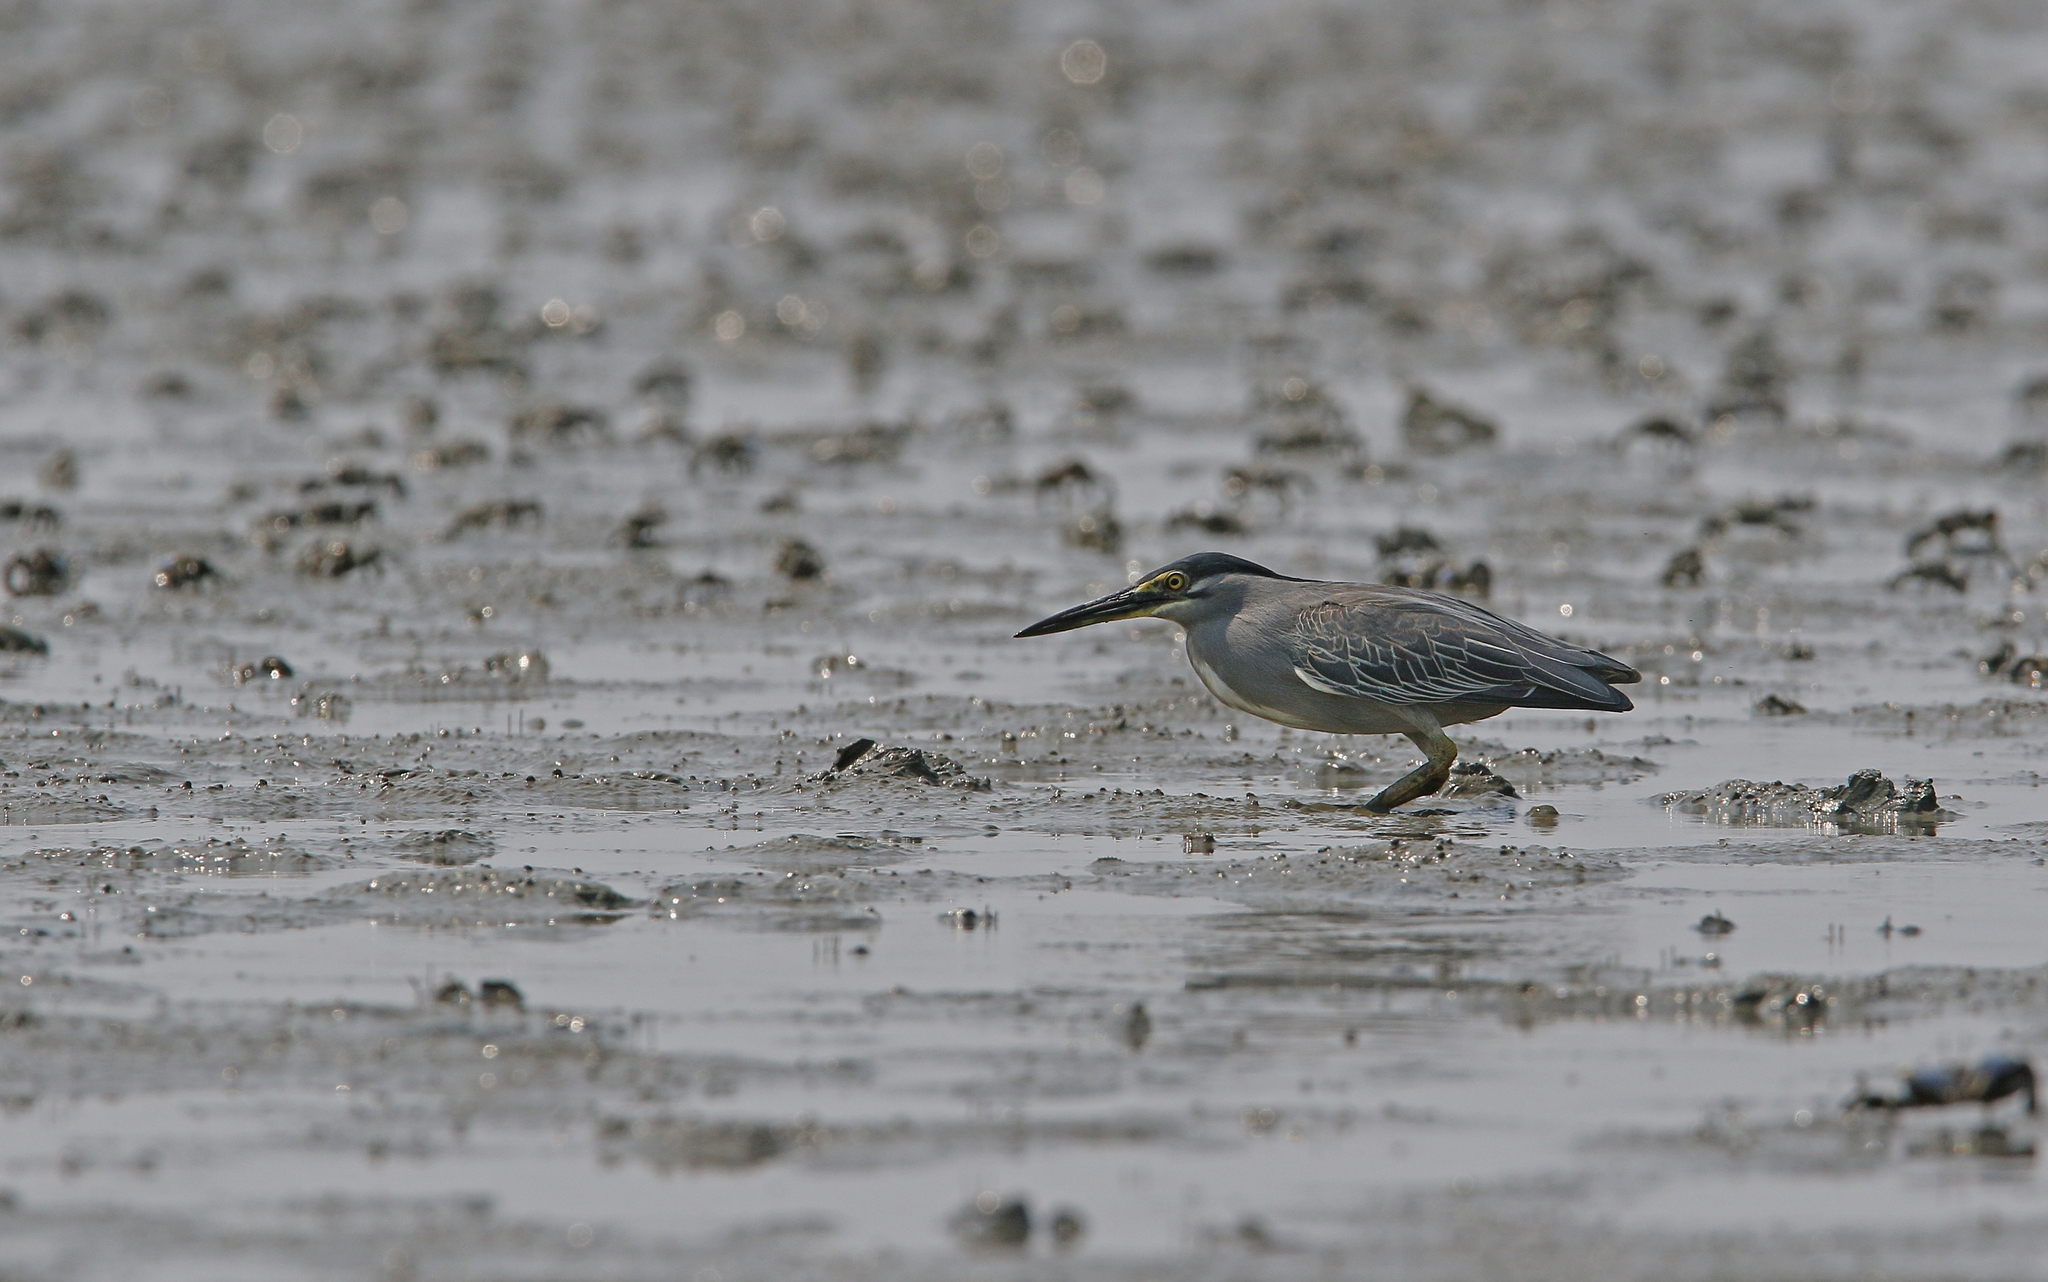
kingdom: Animalia
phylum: Chordata
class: Aves
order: Pelecaniformes
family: Ardeidae
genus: Butorides
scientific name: Butorides striata
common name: Striated heron
